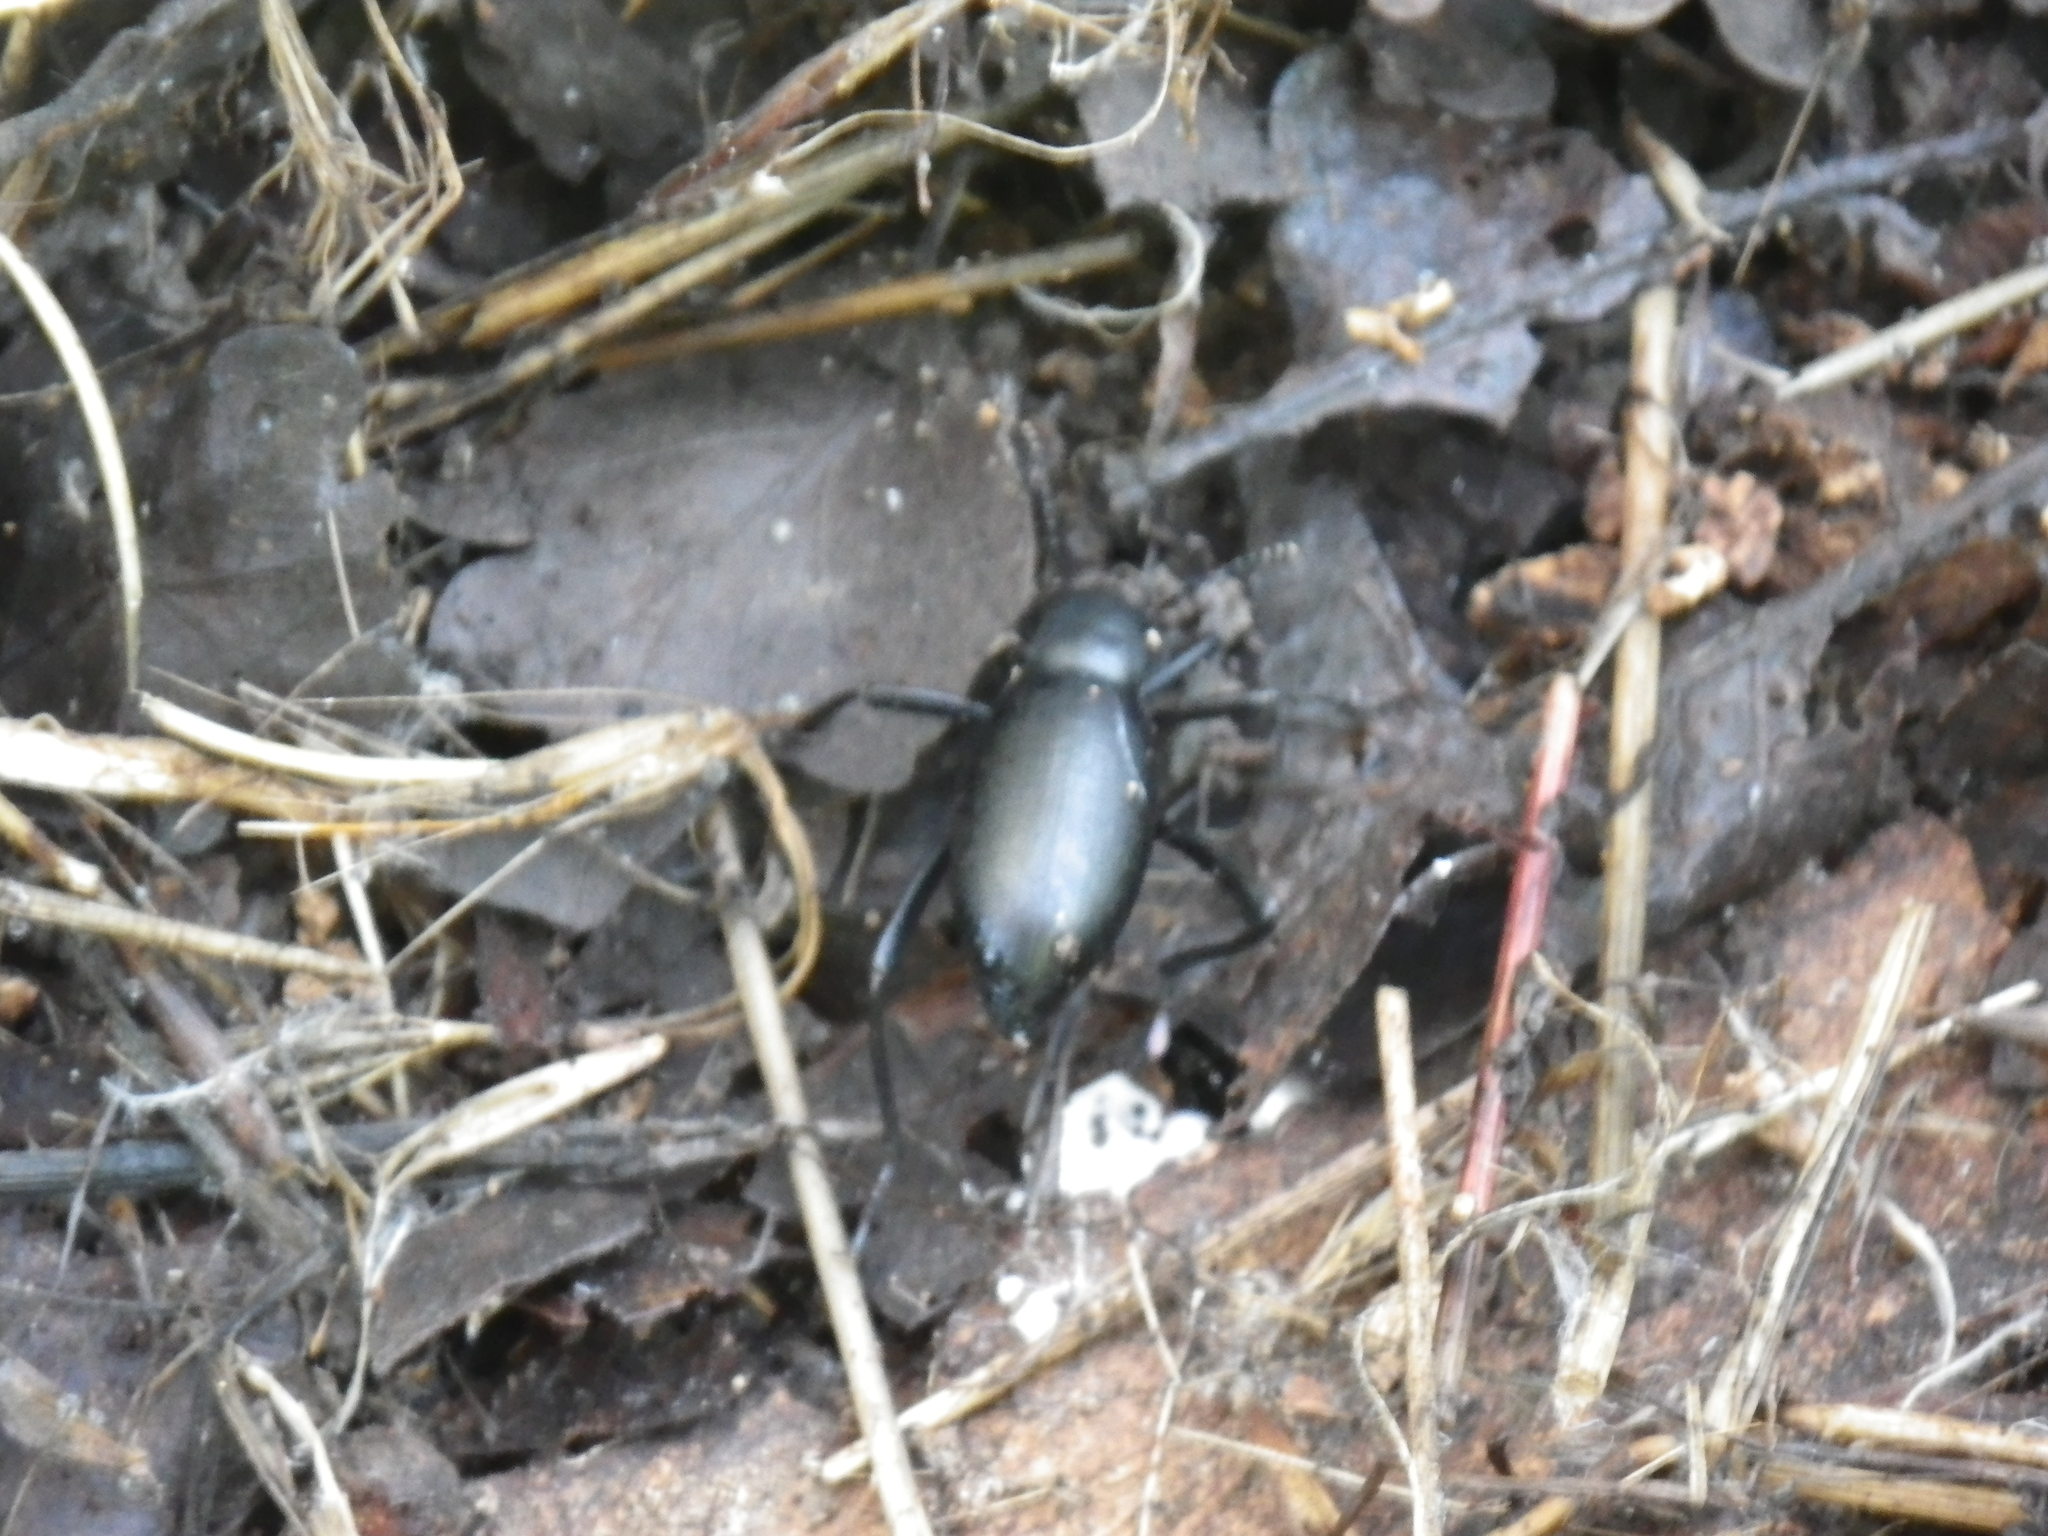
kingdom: Animalia
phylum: Arthropoda
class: Insecta
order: Coleoptera
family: Tenebrionidae
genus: Eleodes
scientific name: Eleodes dentipes
